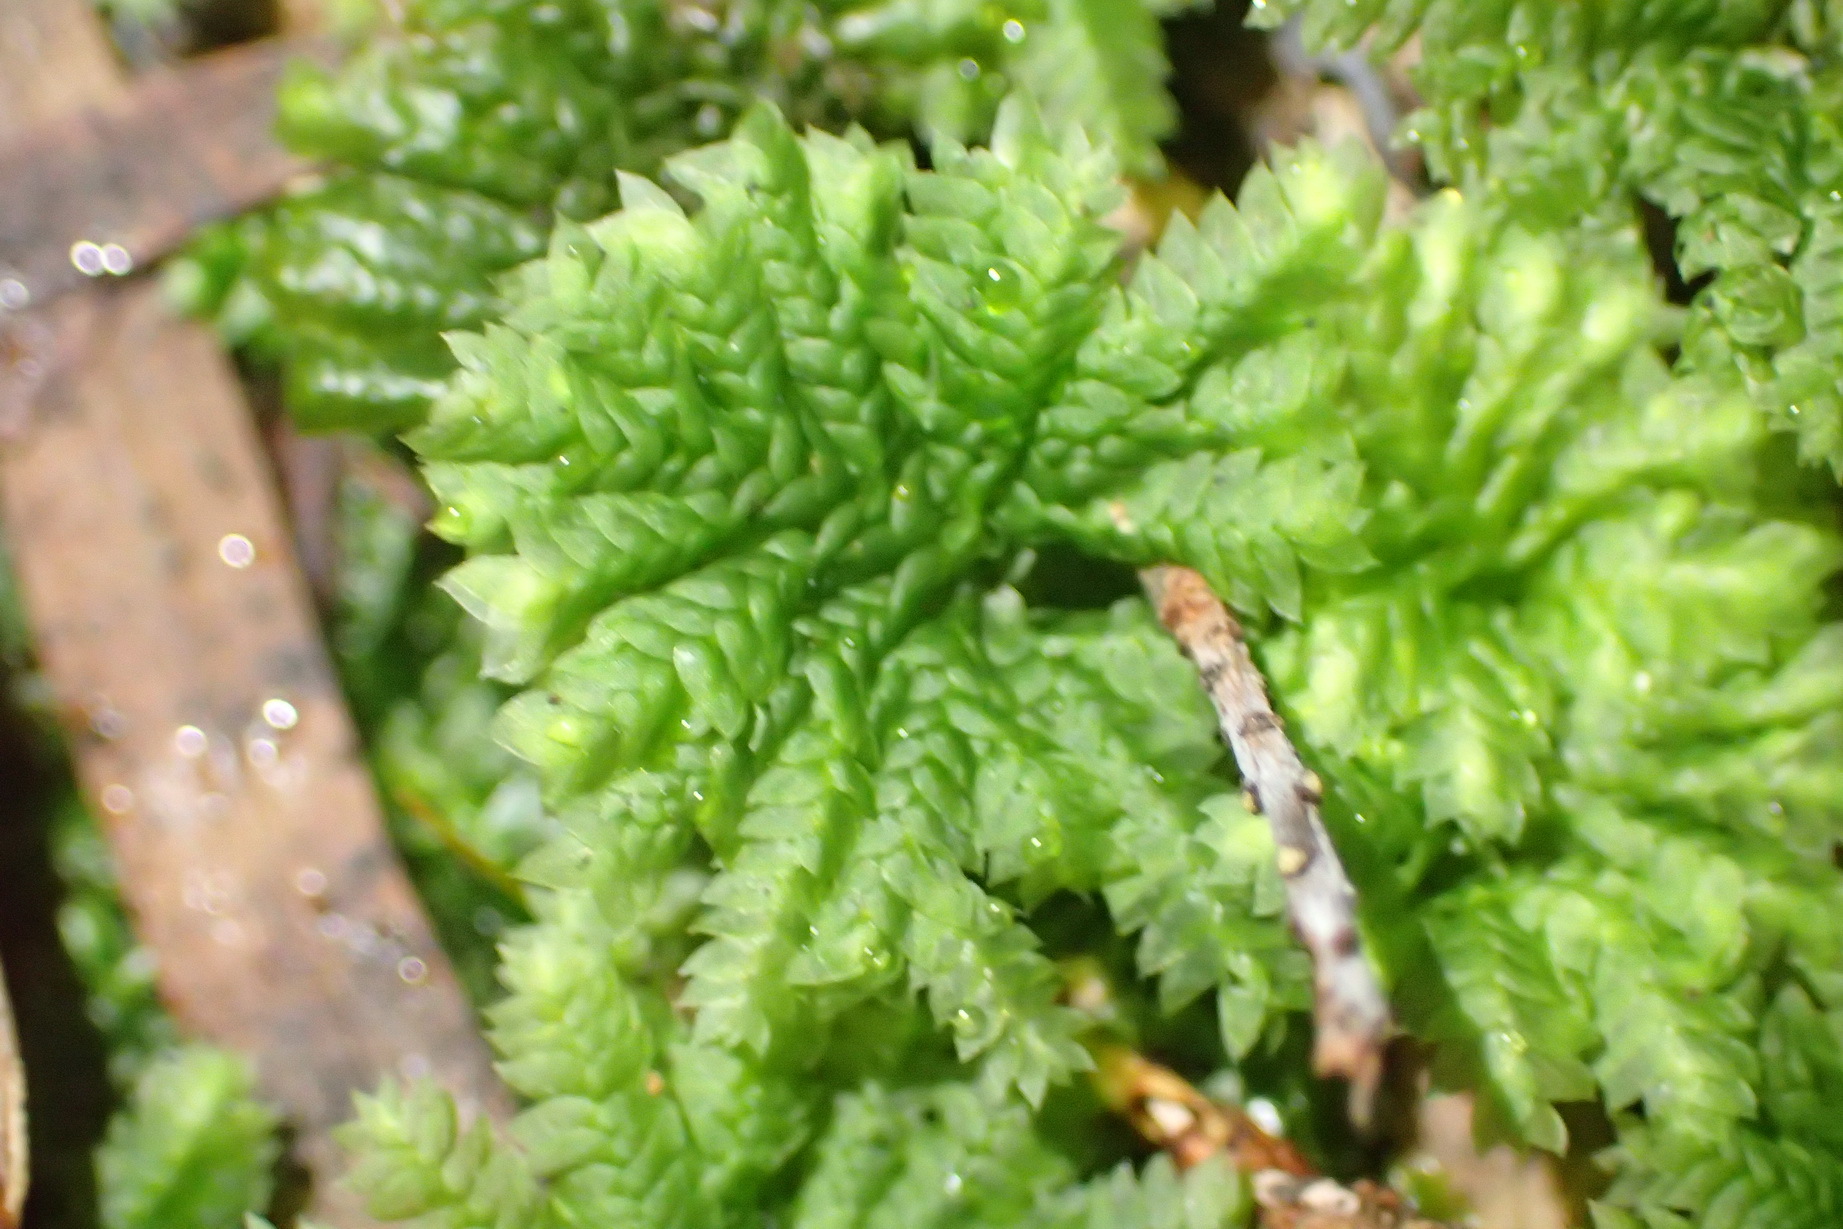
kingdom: Plantae
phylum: Bryophyta
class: Bryopsida
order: Hypopterygiales
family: Hypopterygiaceae
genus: Hypopterygium
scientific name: Hypopterygium tamarisci
